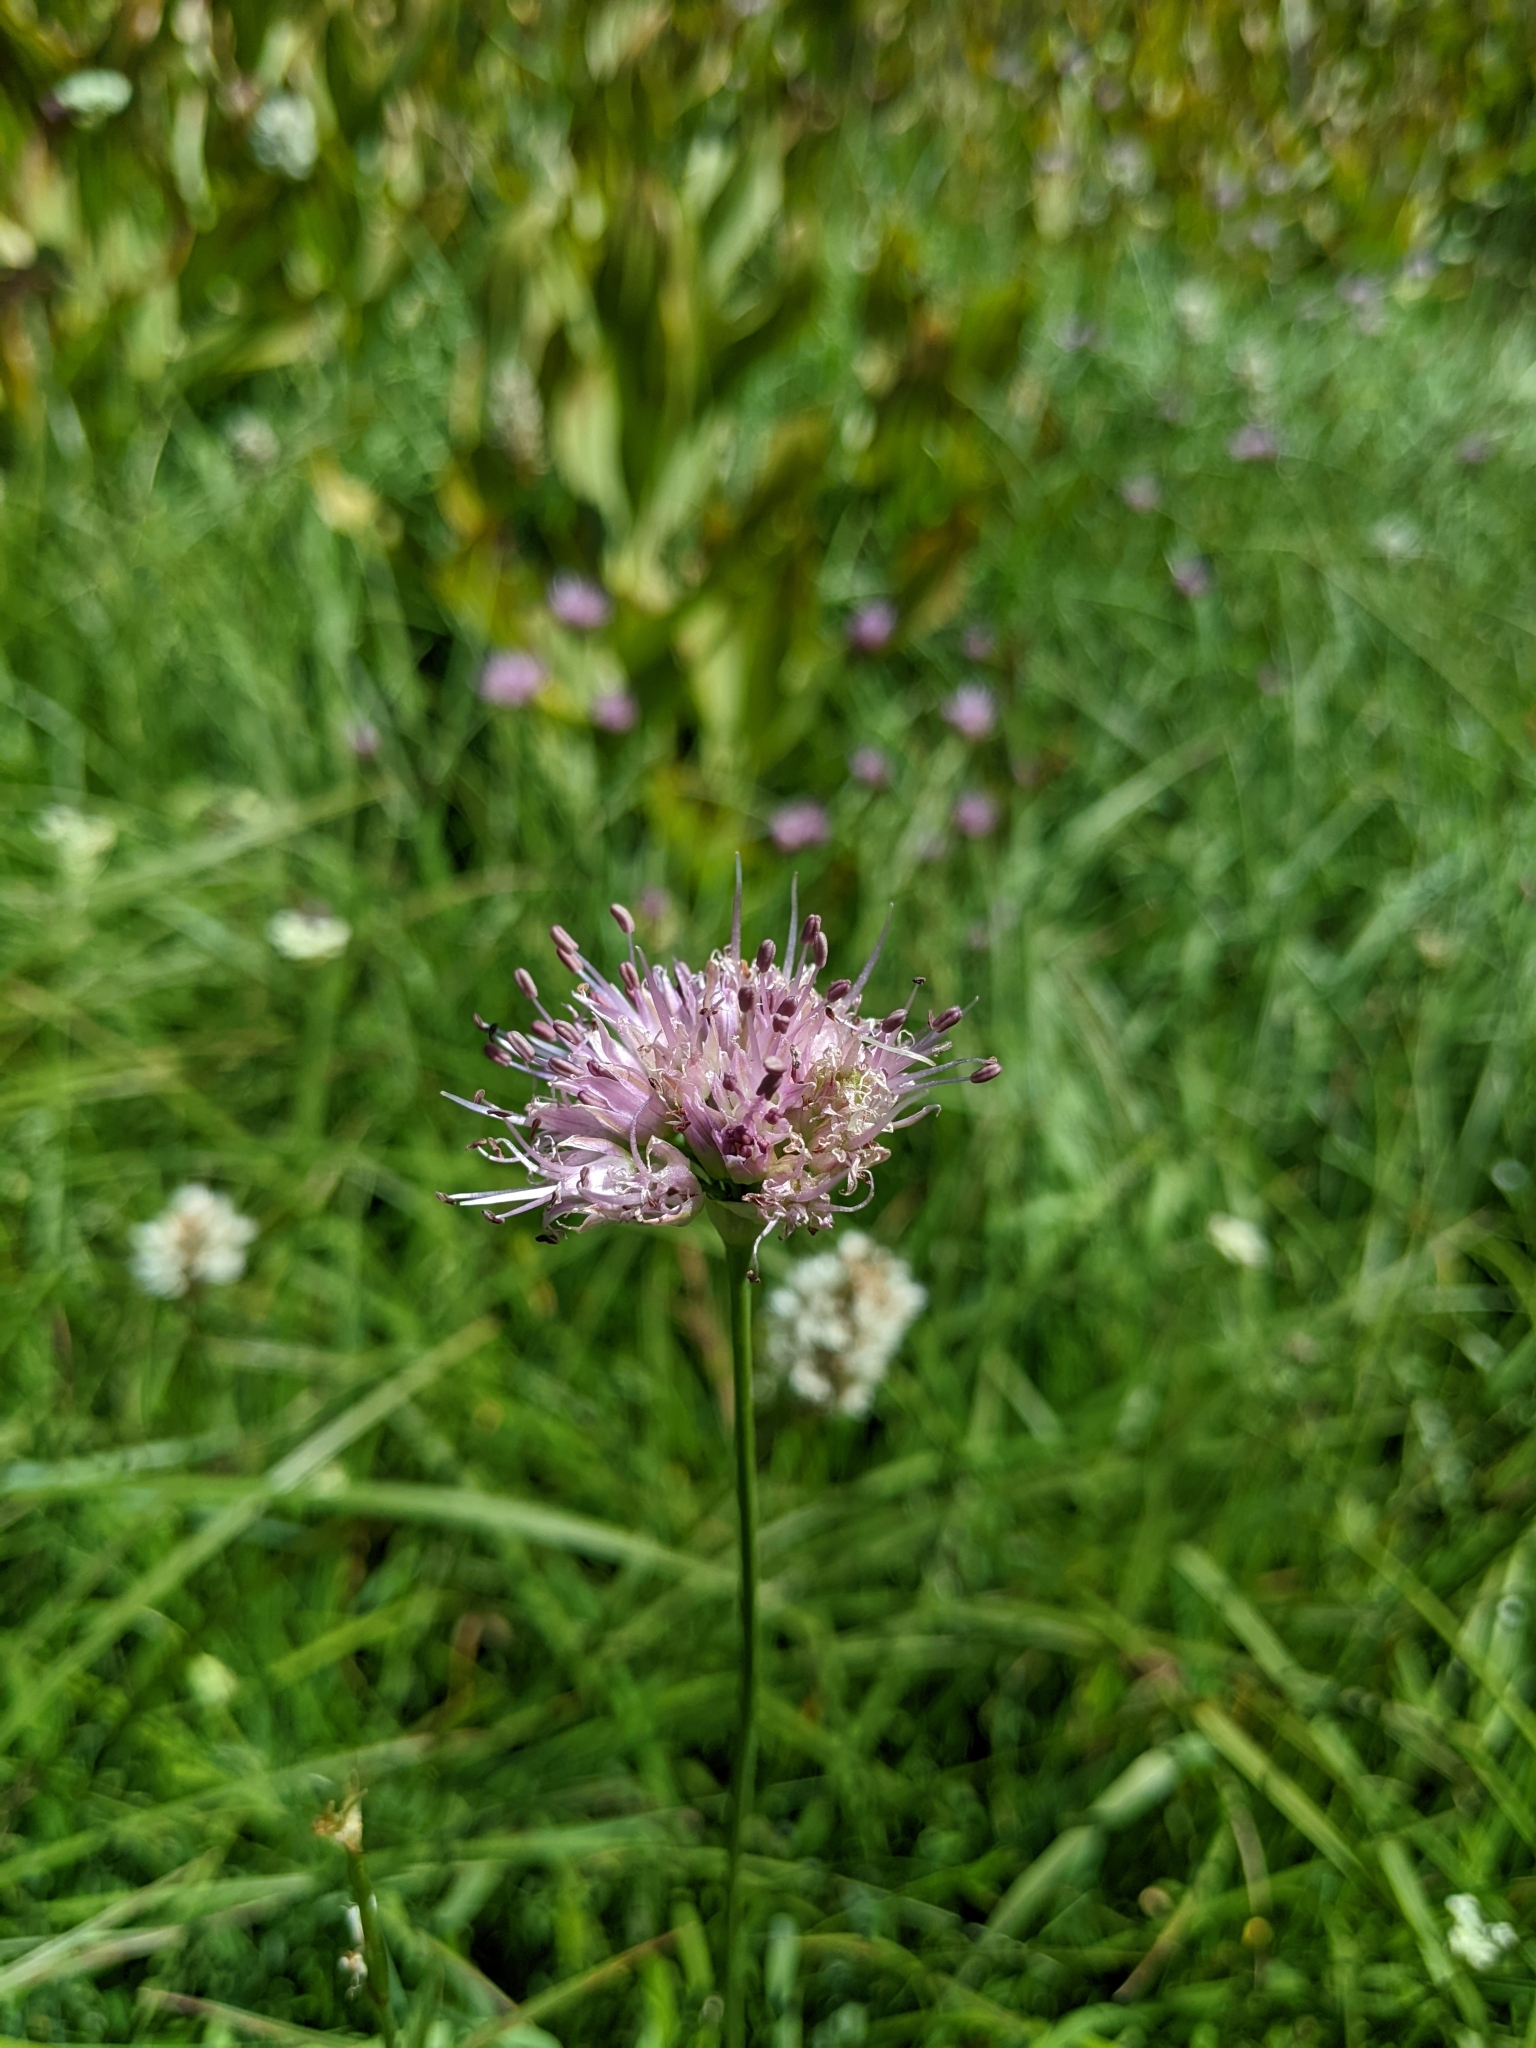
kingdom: Plantae
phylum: Tracheophyta
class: Liliopsida
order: Asparagales
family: Amaryllidaceae
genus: Allium
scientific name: Allium validum
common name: Pacific mountain onion
